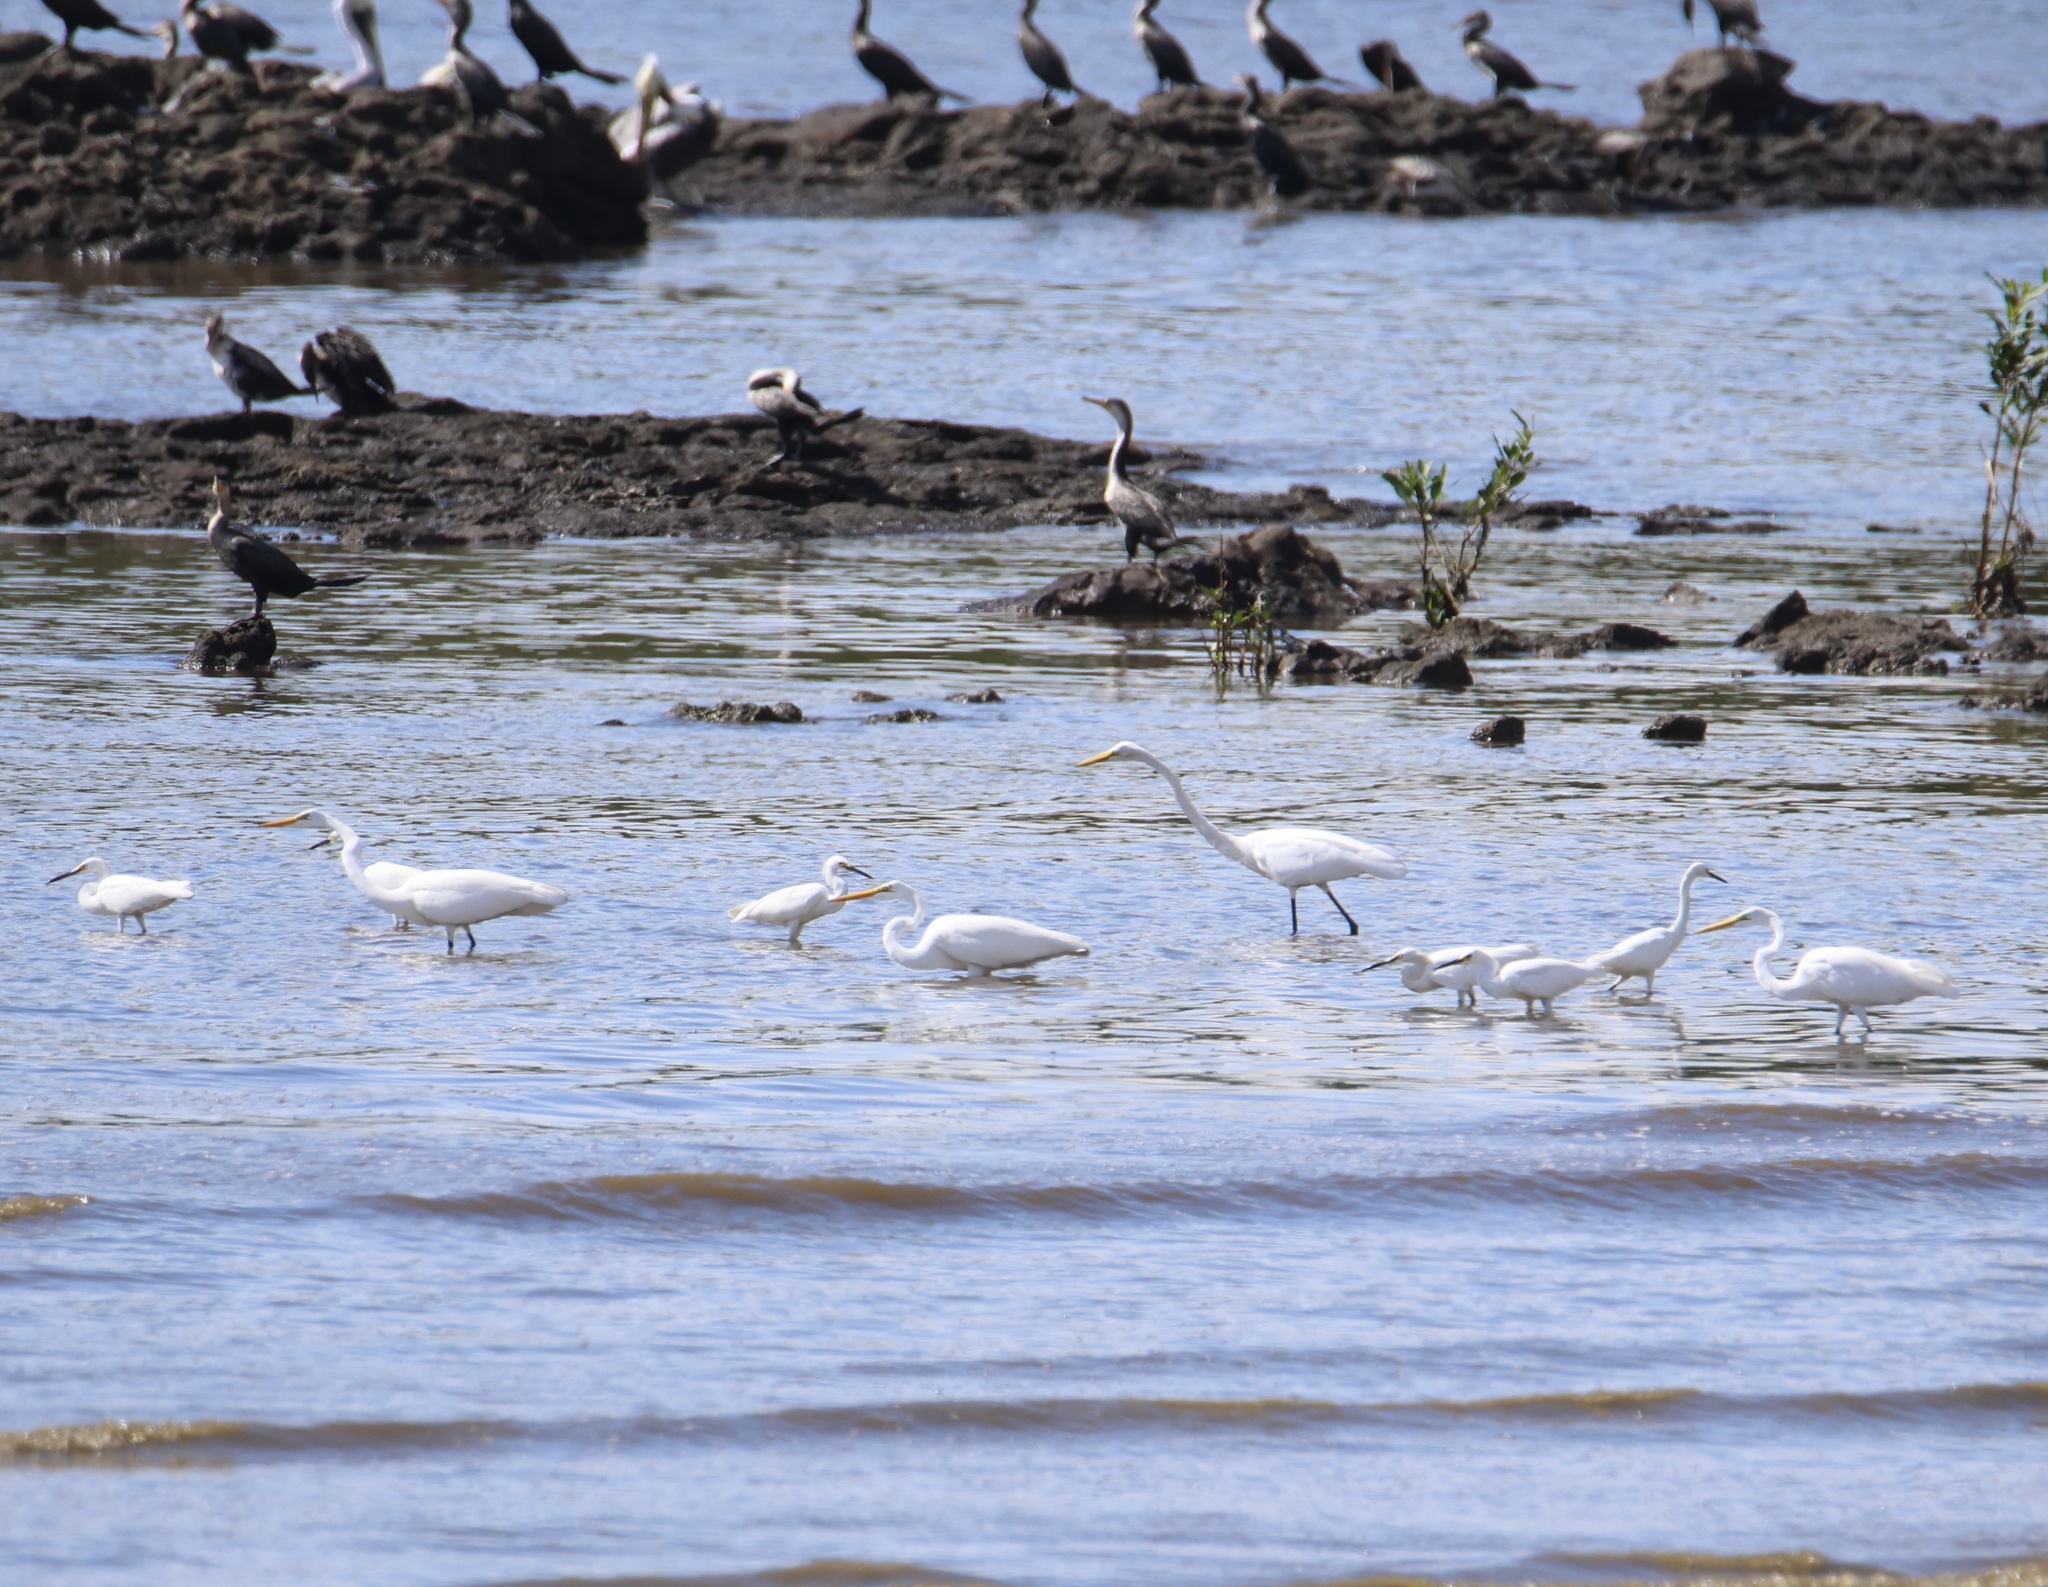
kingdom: Animalia
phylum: Chordata
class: Aves
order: Pelecaniformes
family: Ardeidae
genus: Ardea
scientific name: Ardea alba
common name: Great egret
